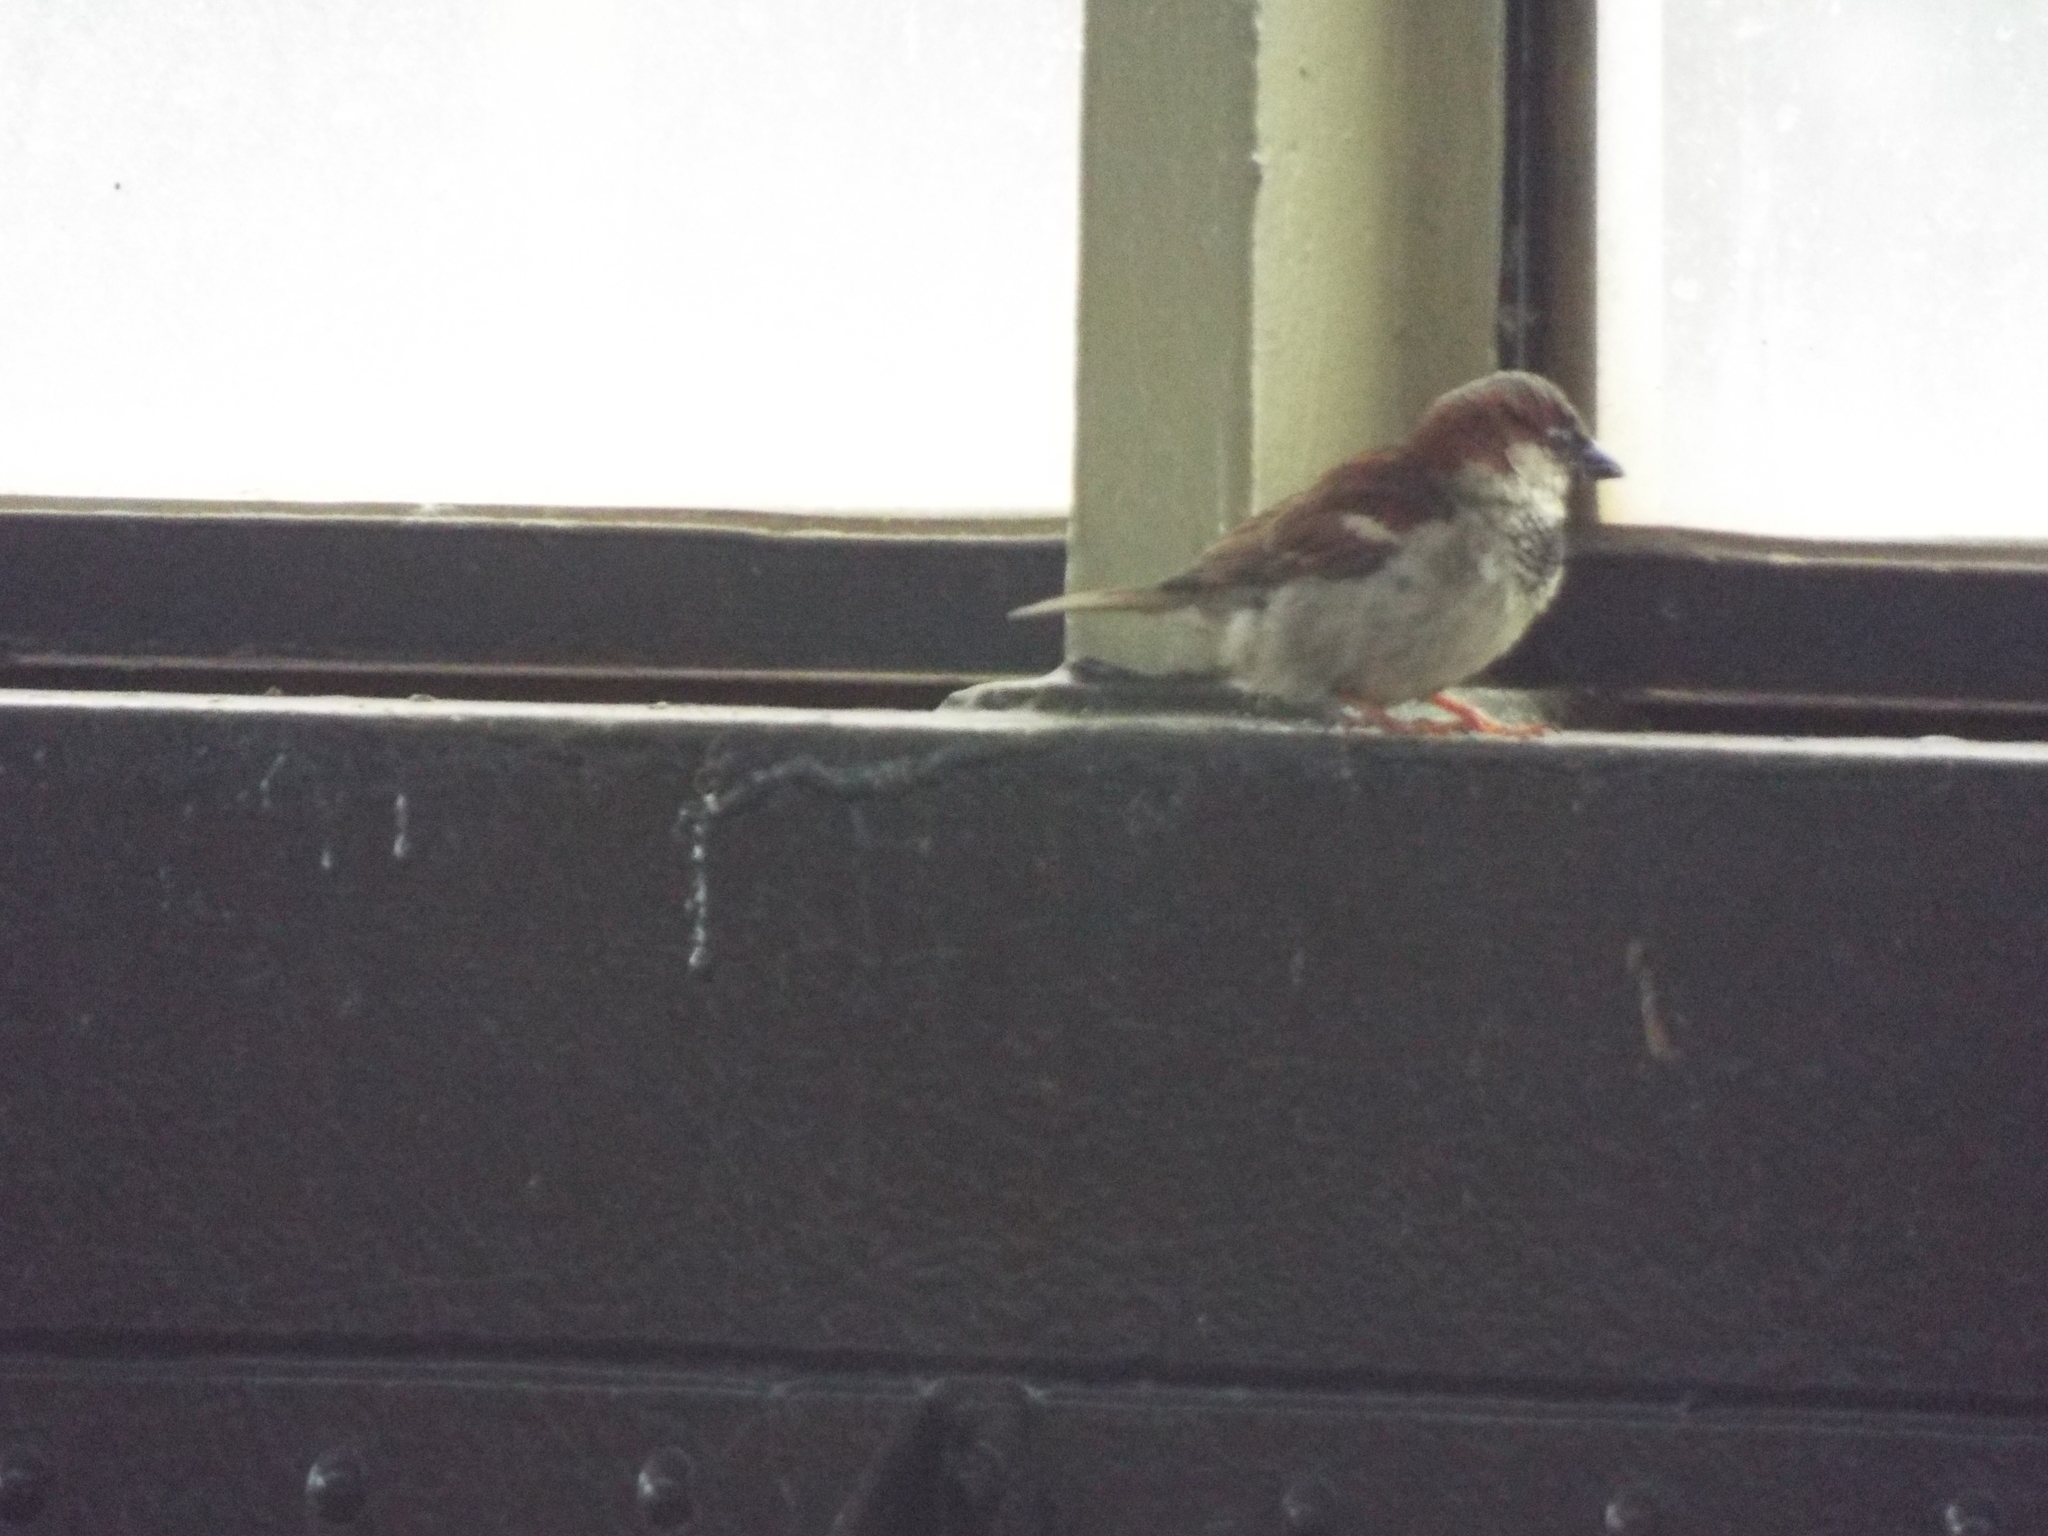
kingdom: Animalia
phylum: Chordata
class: Aves
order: Passeriformes
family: Passeridae
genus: Passer
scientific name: Passer domesticus
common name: House sparrow
